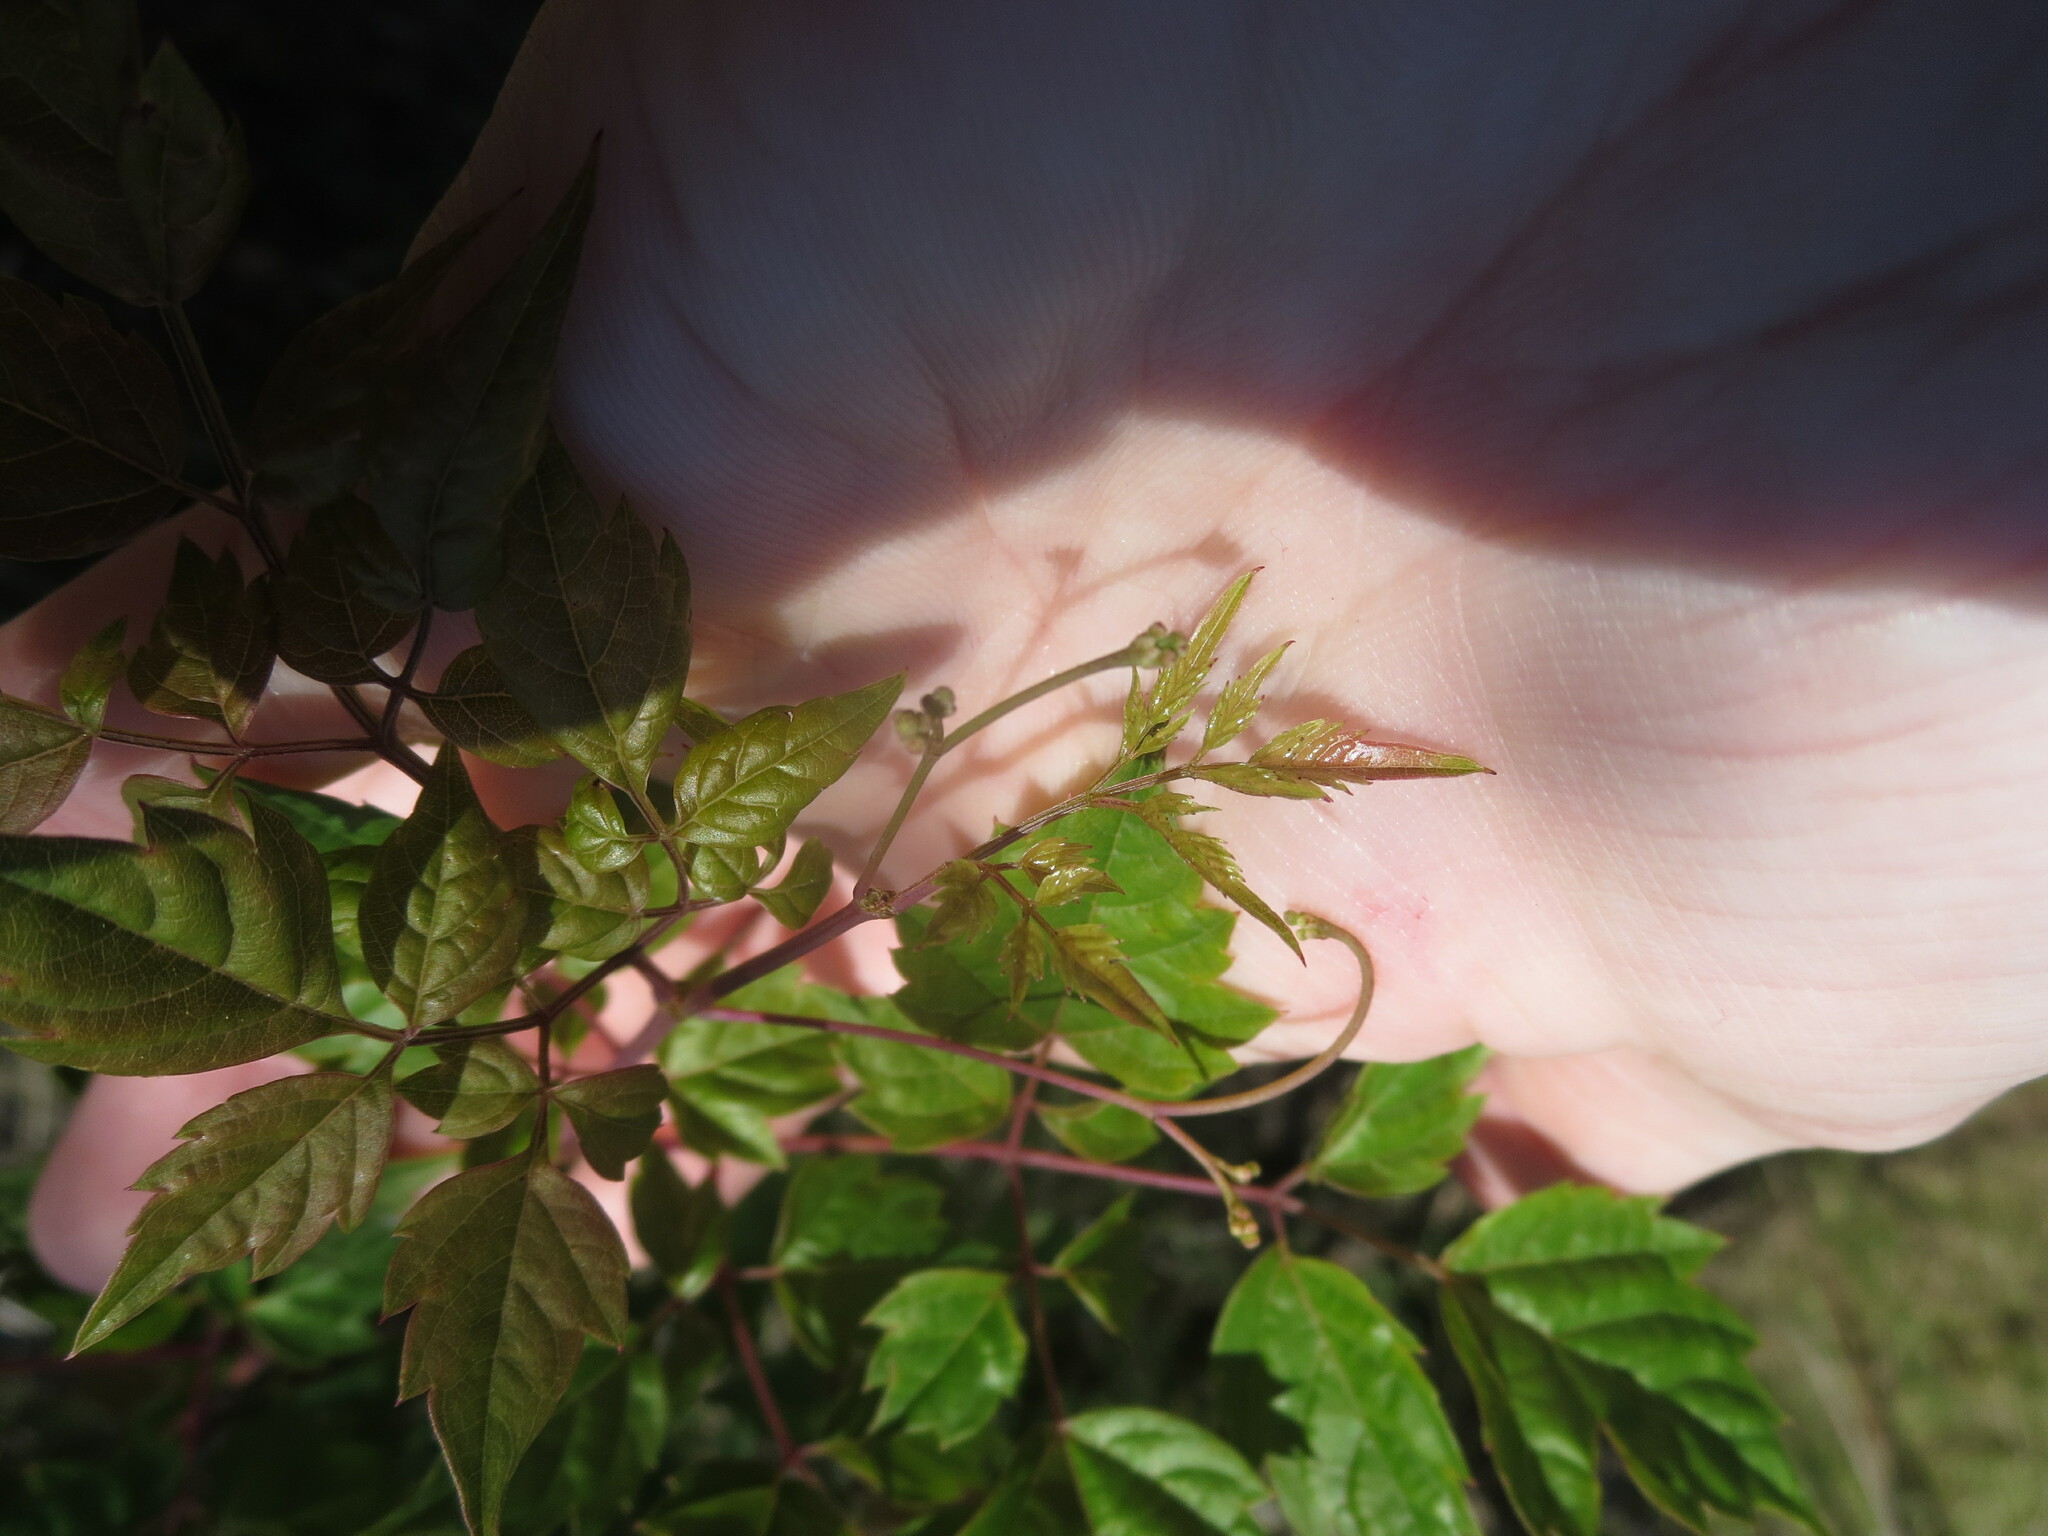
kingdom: Plantae
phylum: Tracheophyta
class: Magnoliopsida
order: Vitales
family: Vitaceae
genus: Nekemias
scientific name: Nekemias arborea
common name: Peppervine
